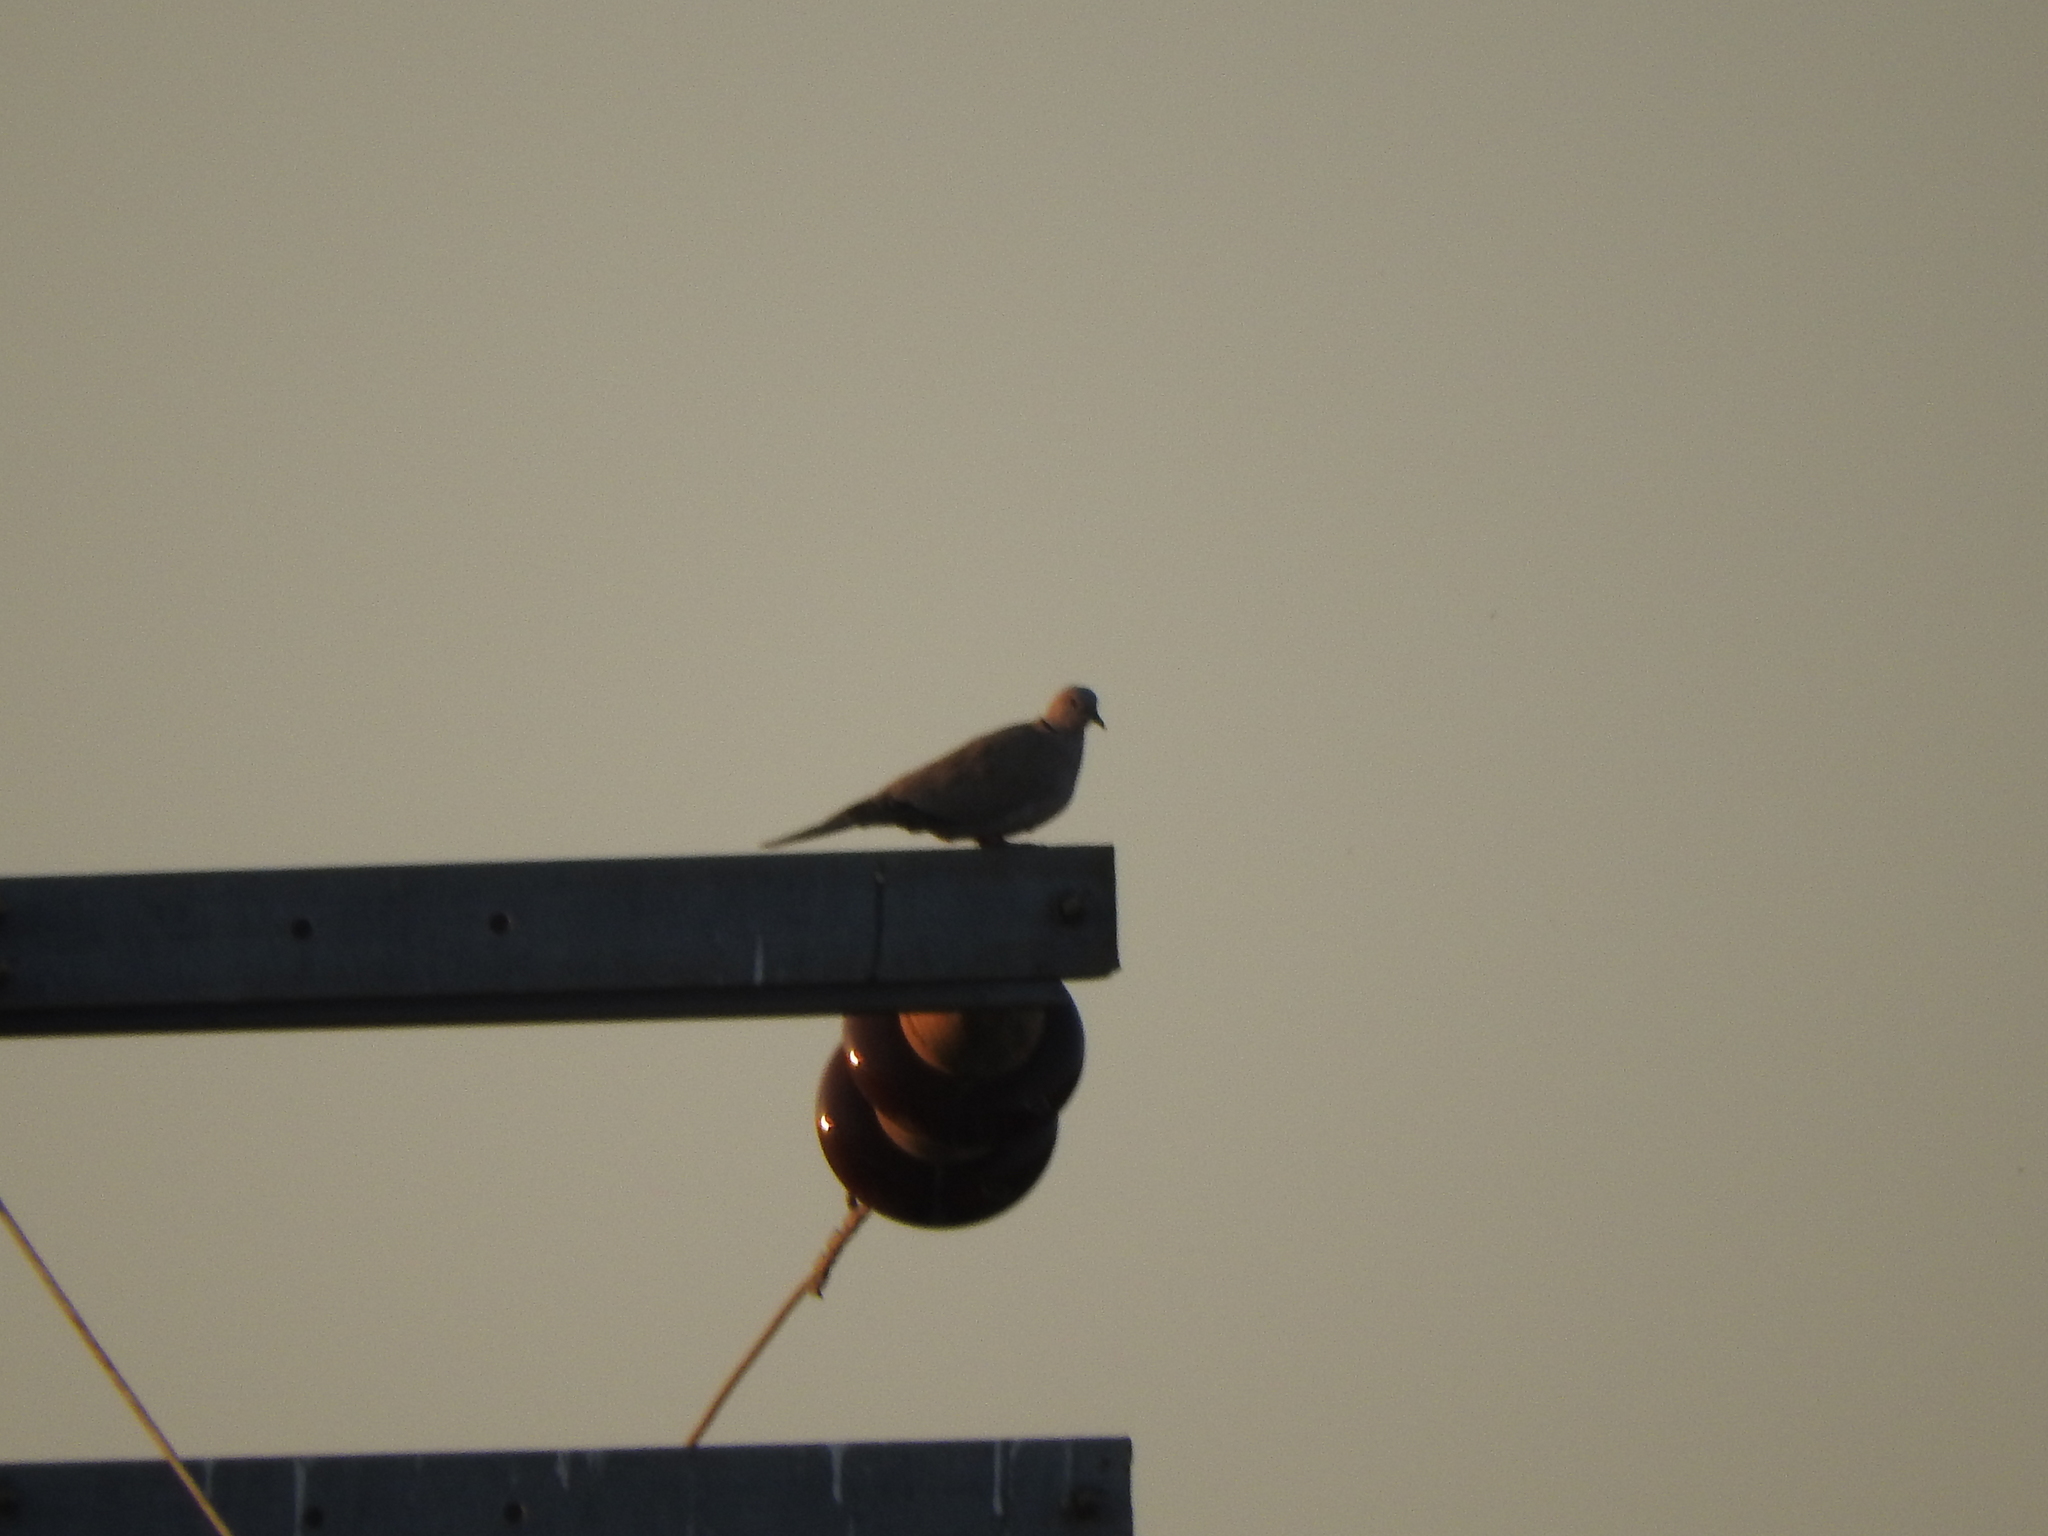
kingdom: Animalia
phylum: Chordata
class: Aves
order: Columbiformes
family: Columbidae
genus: Streptopelia
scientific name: Streptopelia decaocto
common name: Eurasian collared dove
